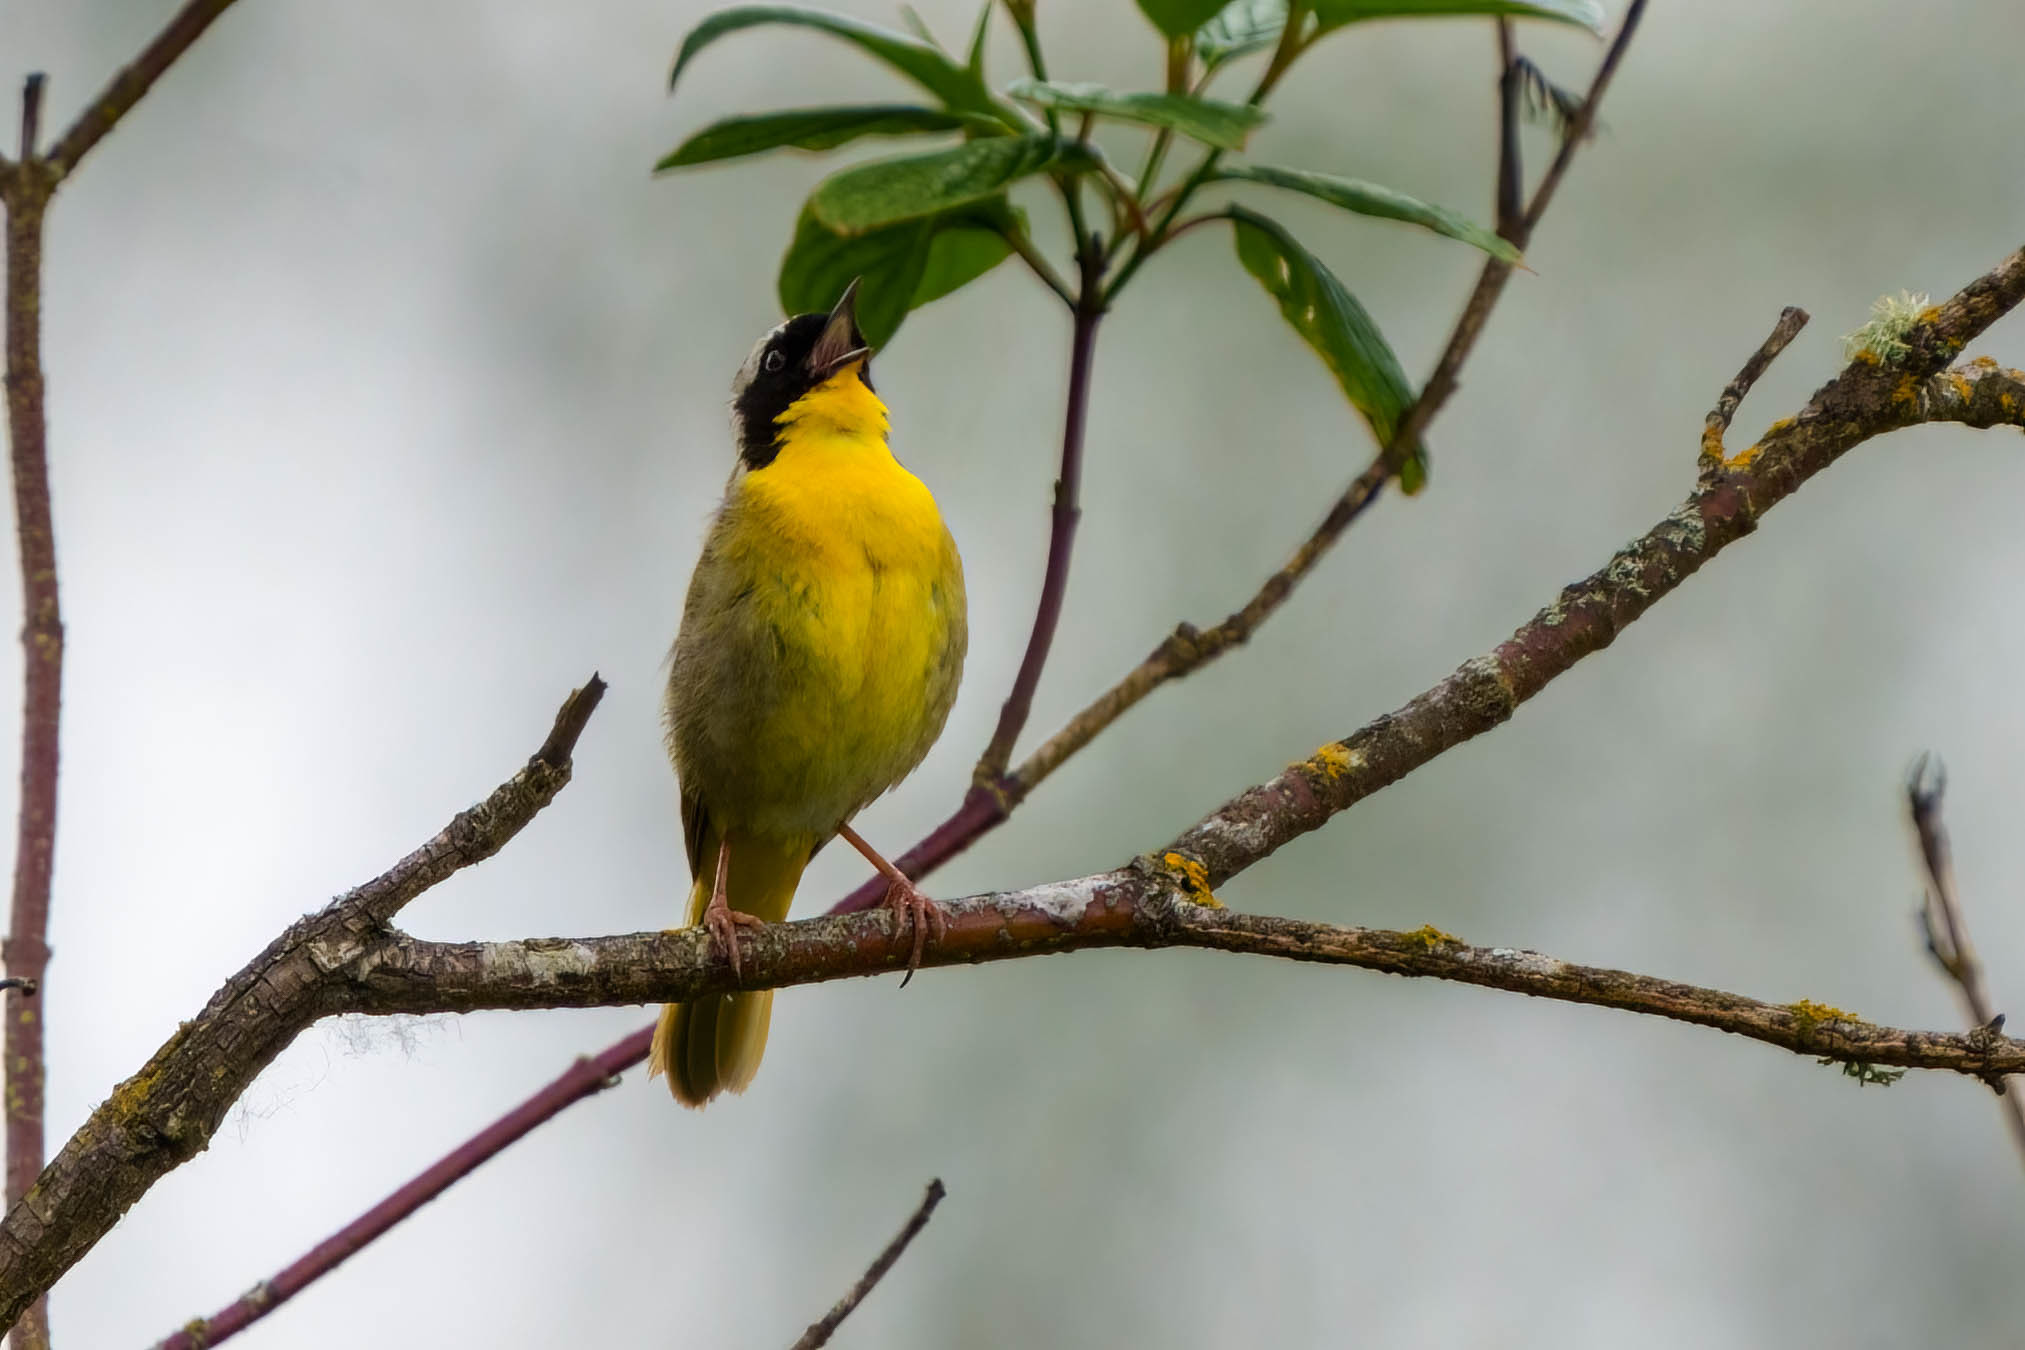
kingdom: Animalia
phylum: Chordata
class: Aves
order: Passeriformes
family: Parulidae
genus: Geothlypis
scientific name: Geothlypis trichas
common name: Common yellowthroat
